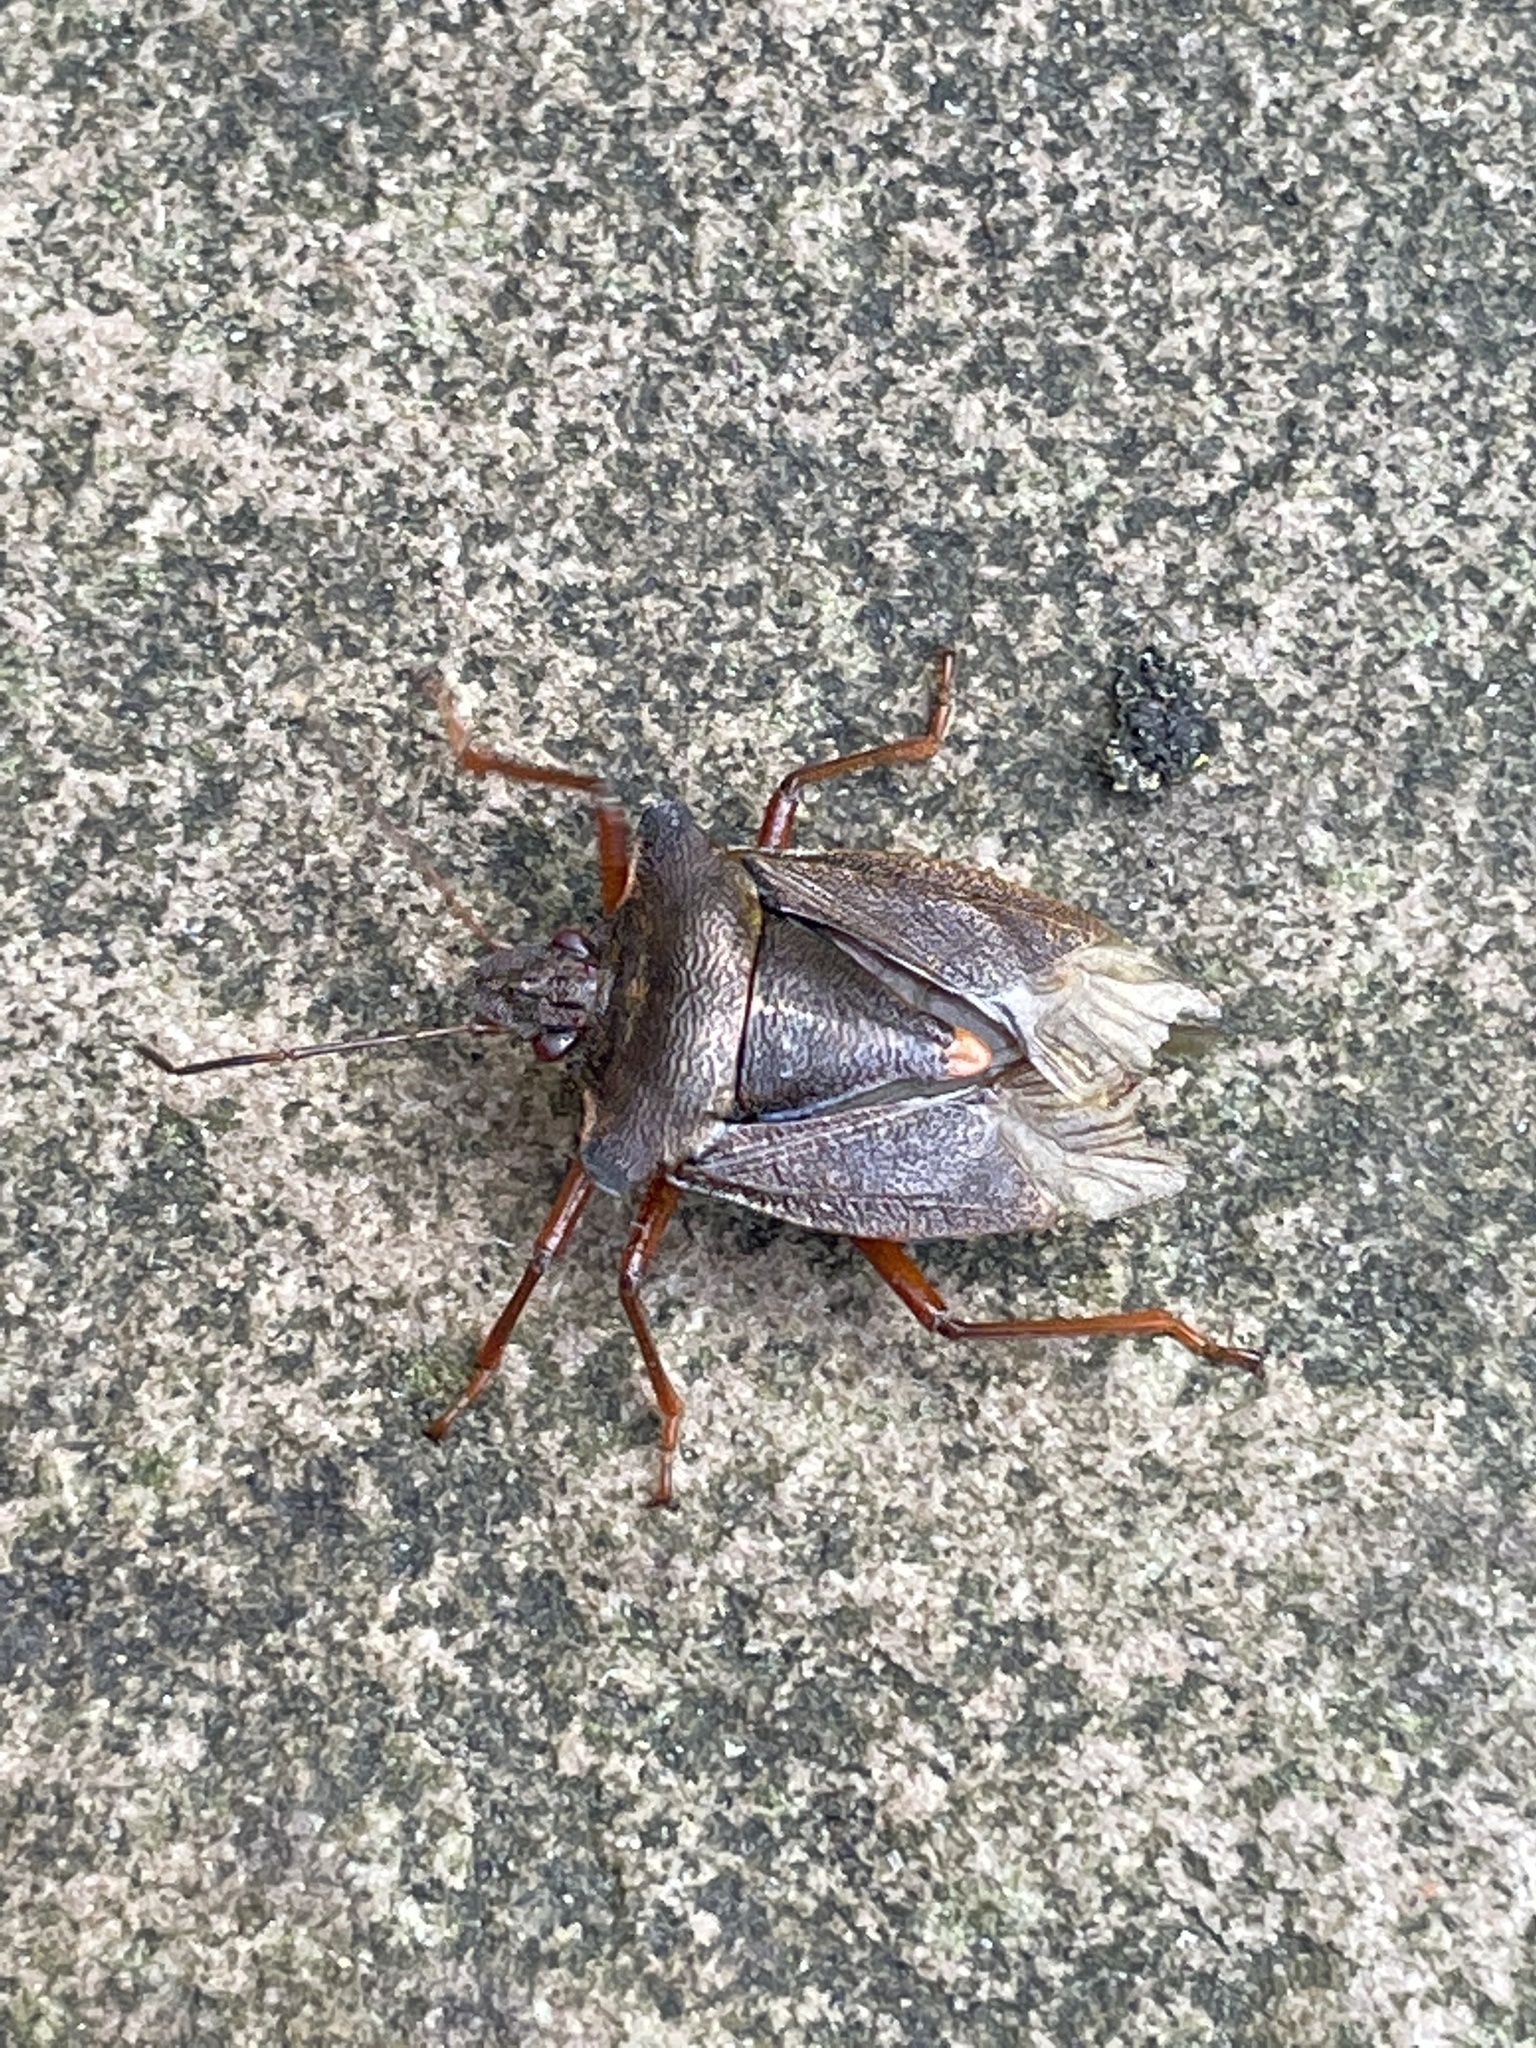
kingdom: Animalia
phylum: Arthropoda
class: Insecta
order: Hemiptera
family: Pentatomidae
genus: Pentatoma
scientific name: Pentatoma rufipes
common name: Forest bug
